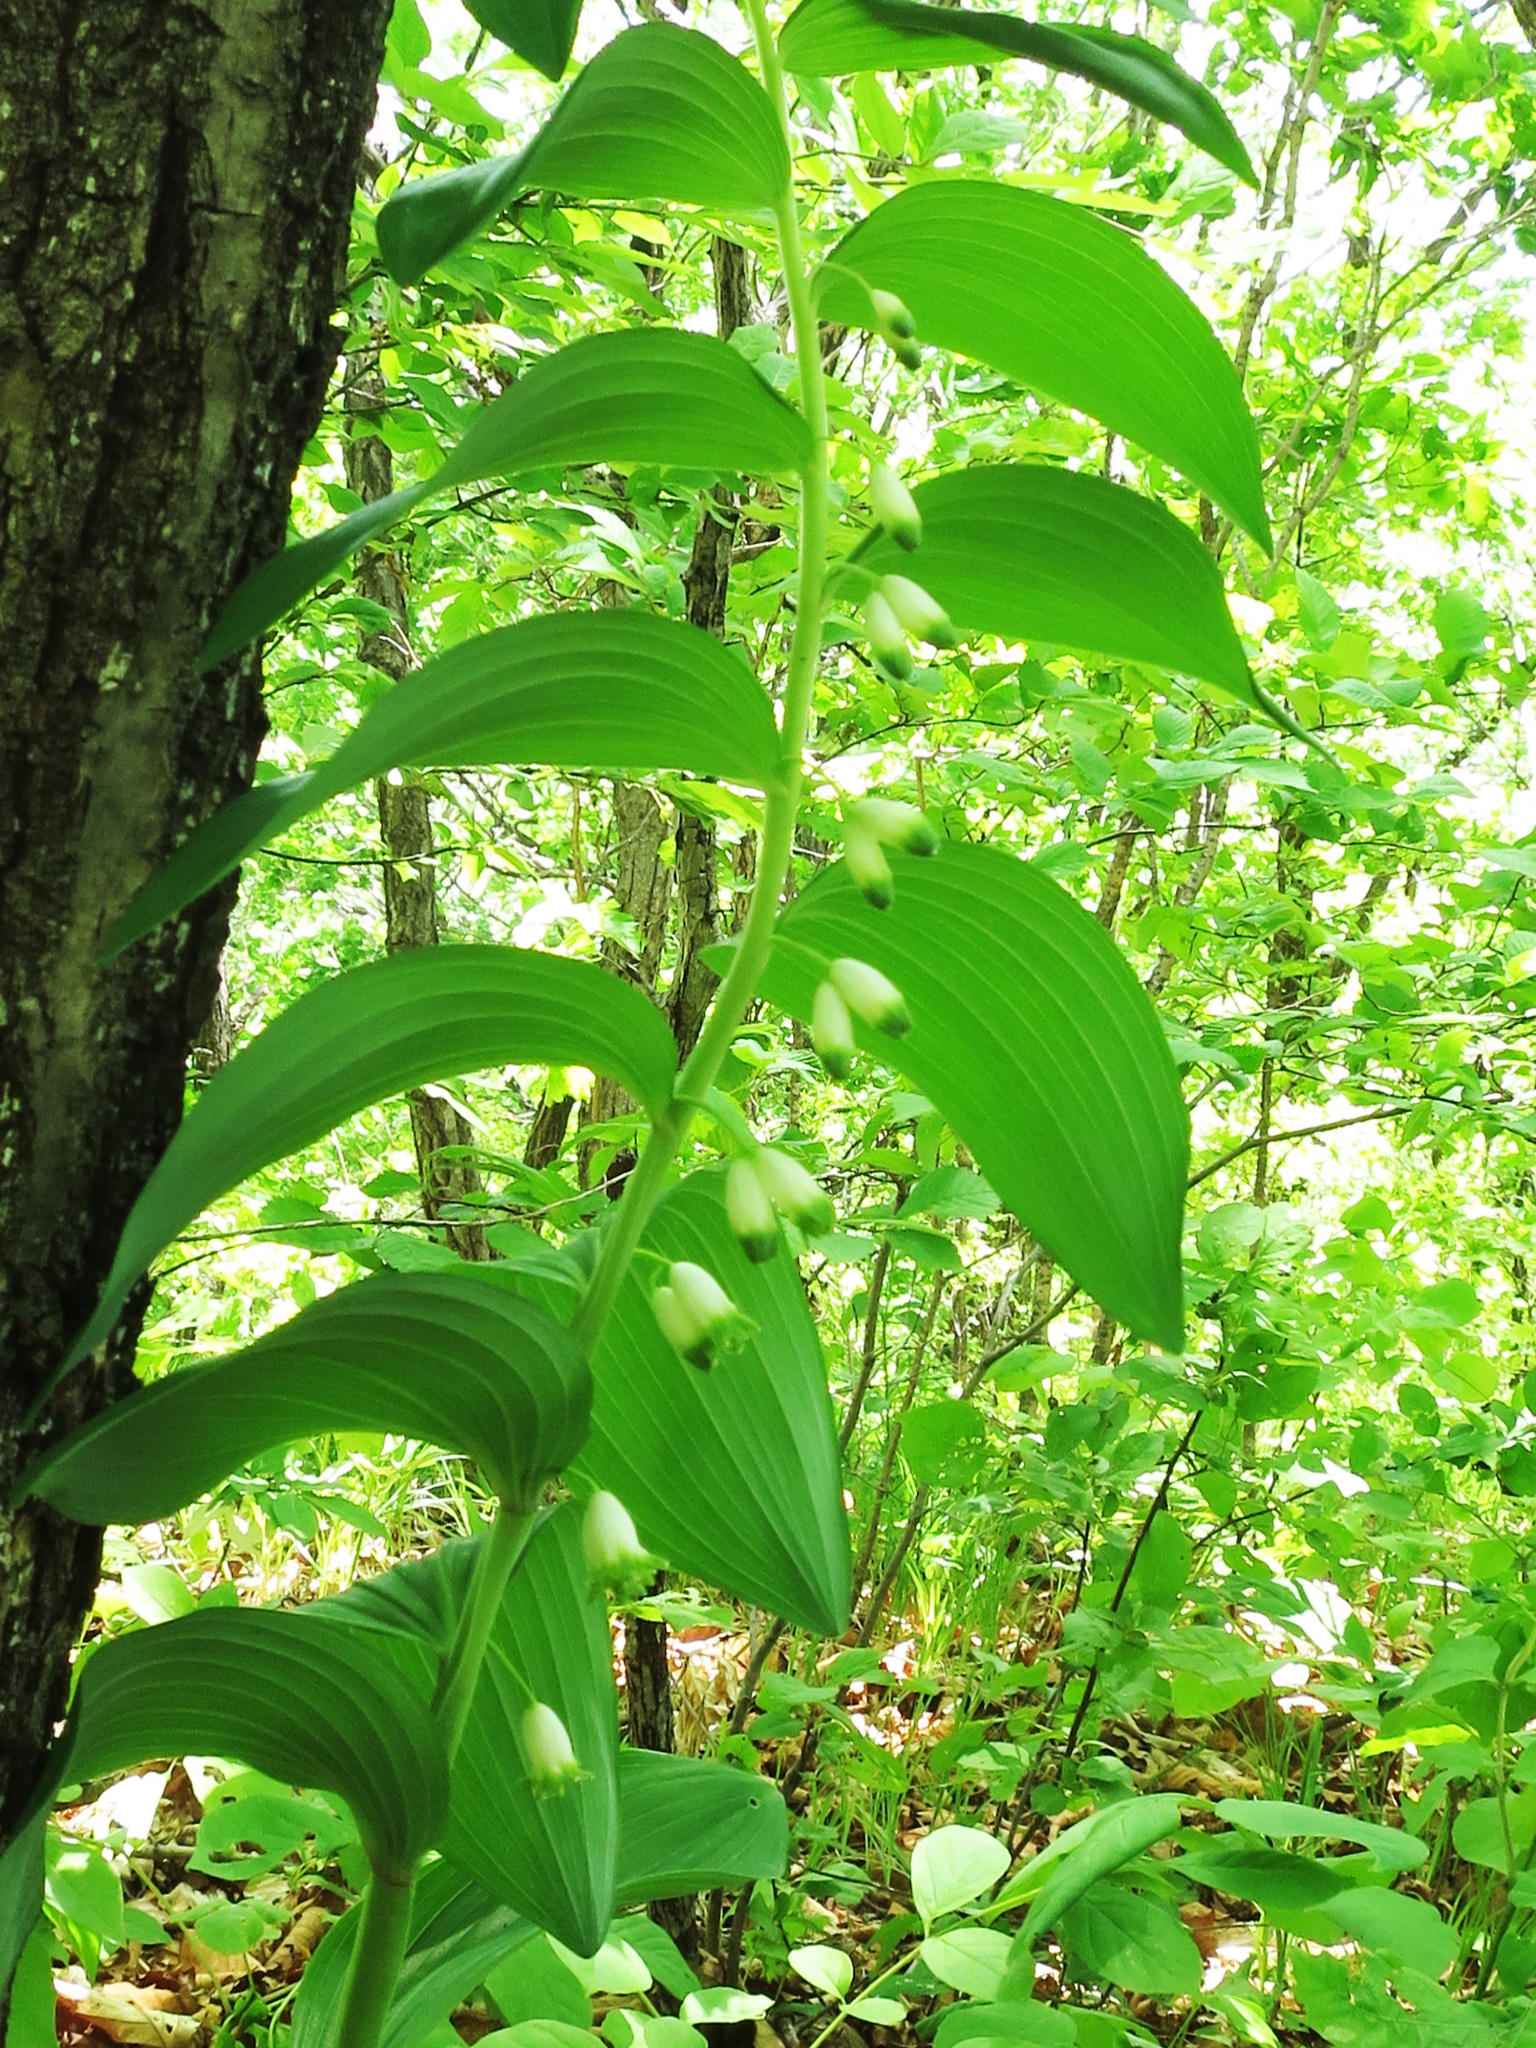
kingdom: Plantae
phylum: Tracheophyta
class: Liliopsida
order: Asparagales
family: Asparagaceae
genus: Polygonatum
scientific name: Polygonatum odoratum
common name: Angular solomon's-seal
